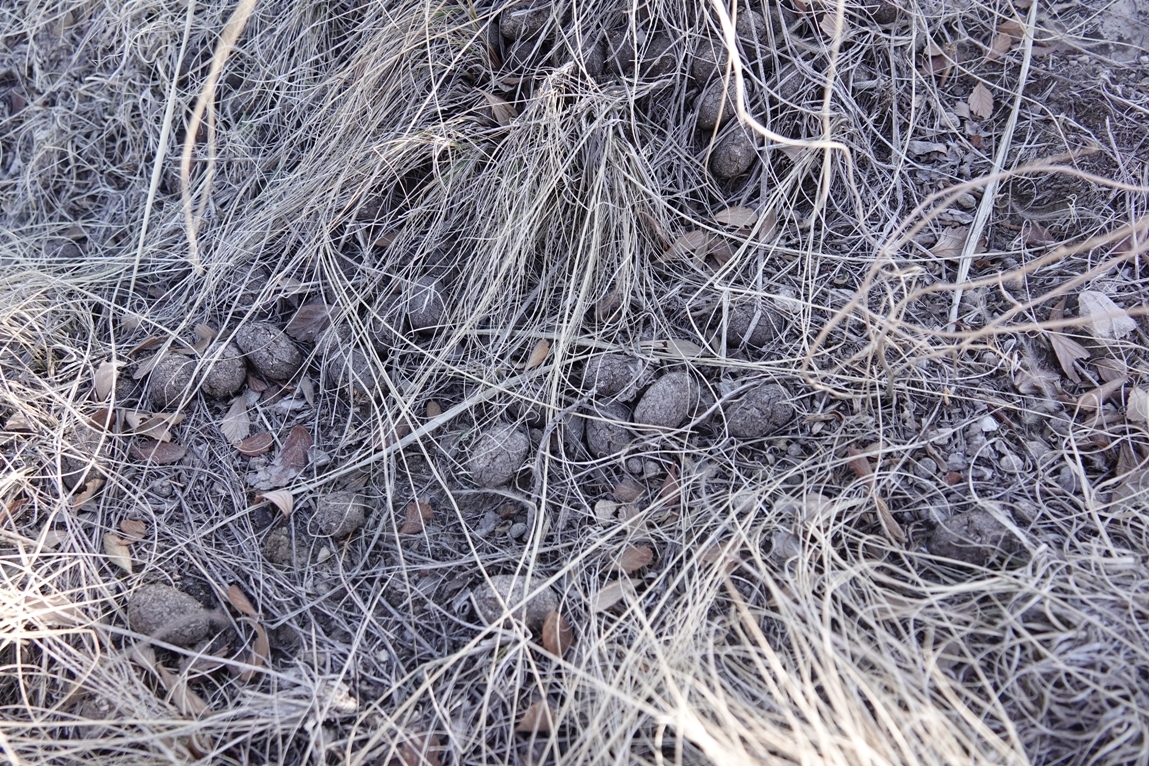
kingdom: Animalia
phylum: Chordata
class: Mammalia
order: Artiodactyla
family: Cervidae
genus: Alces
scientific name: Alces alces
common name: Moose
